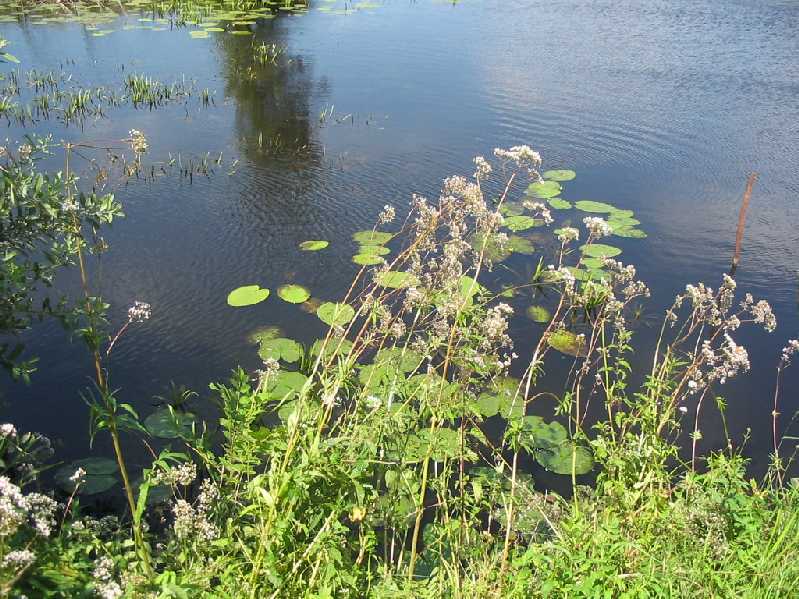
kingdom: Plantae
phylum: Tracheophyta
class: Magnoliopsida
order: Dipsacales
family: Caprifoliaceae
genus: Valeriana
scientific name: Valeriana officinalis
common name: Common valerian
